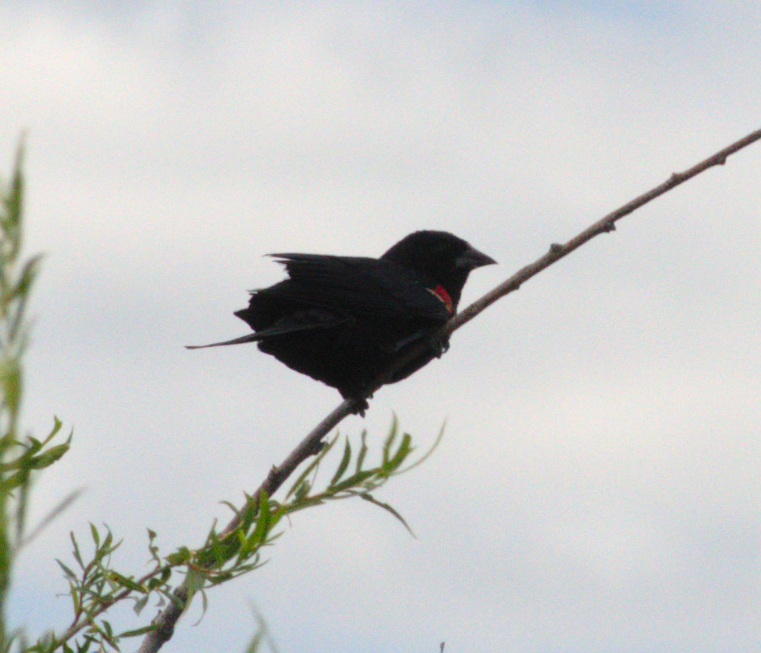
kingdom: Animalia
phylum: Chordata
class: Aves
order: Passeriformes
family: Icteridae
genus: Agelaius
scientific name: Agelaius phoeniceus
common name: Red-winged blackbird
